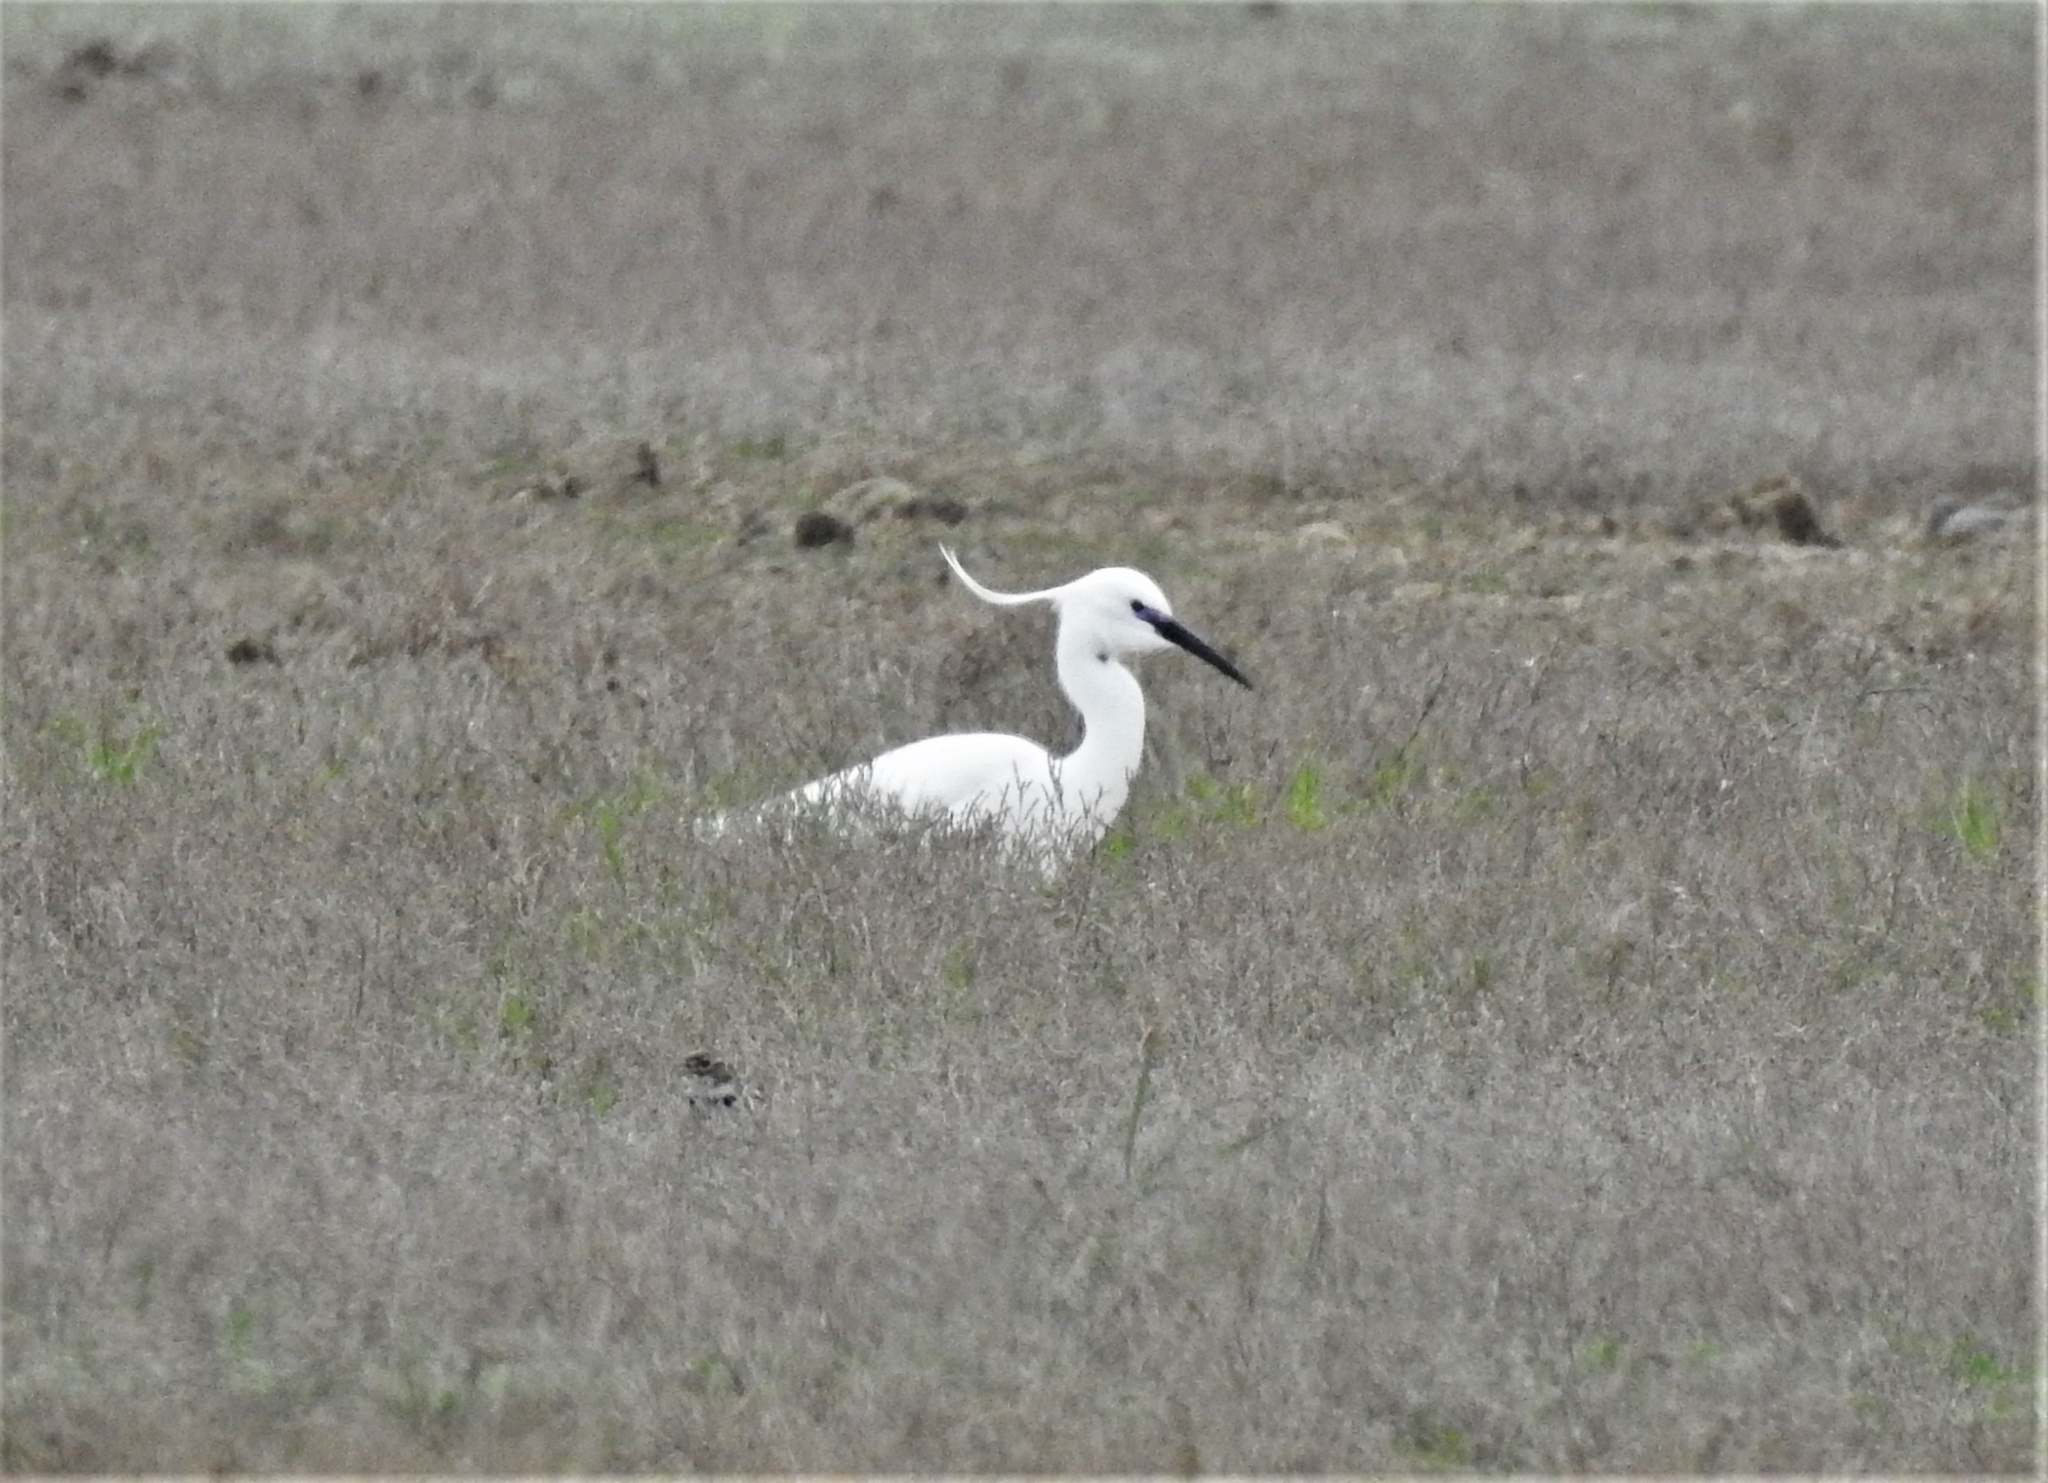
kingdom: Animalia
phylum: Chordata
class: Aves
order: Pelecaniformes
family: Ardeidae
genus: Egretta
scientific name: Egretta garzetta
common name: Little egret
